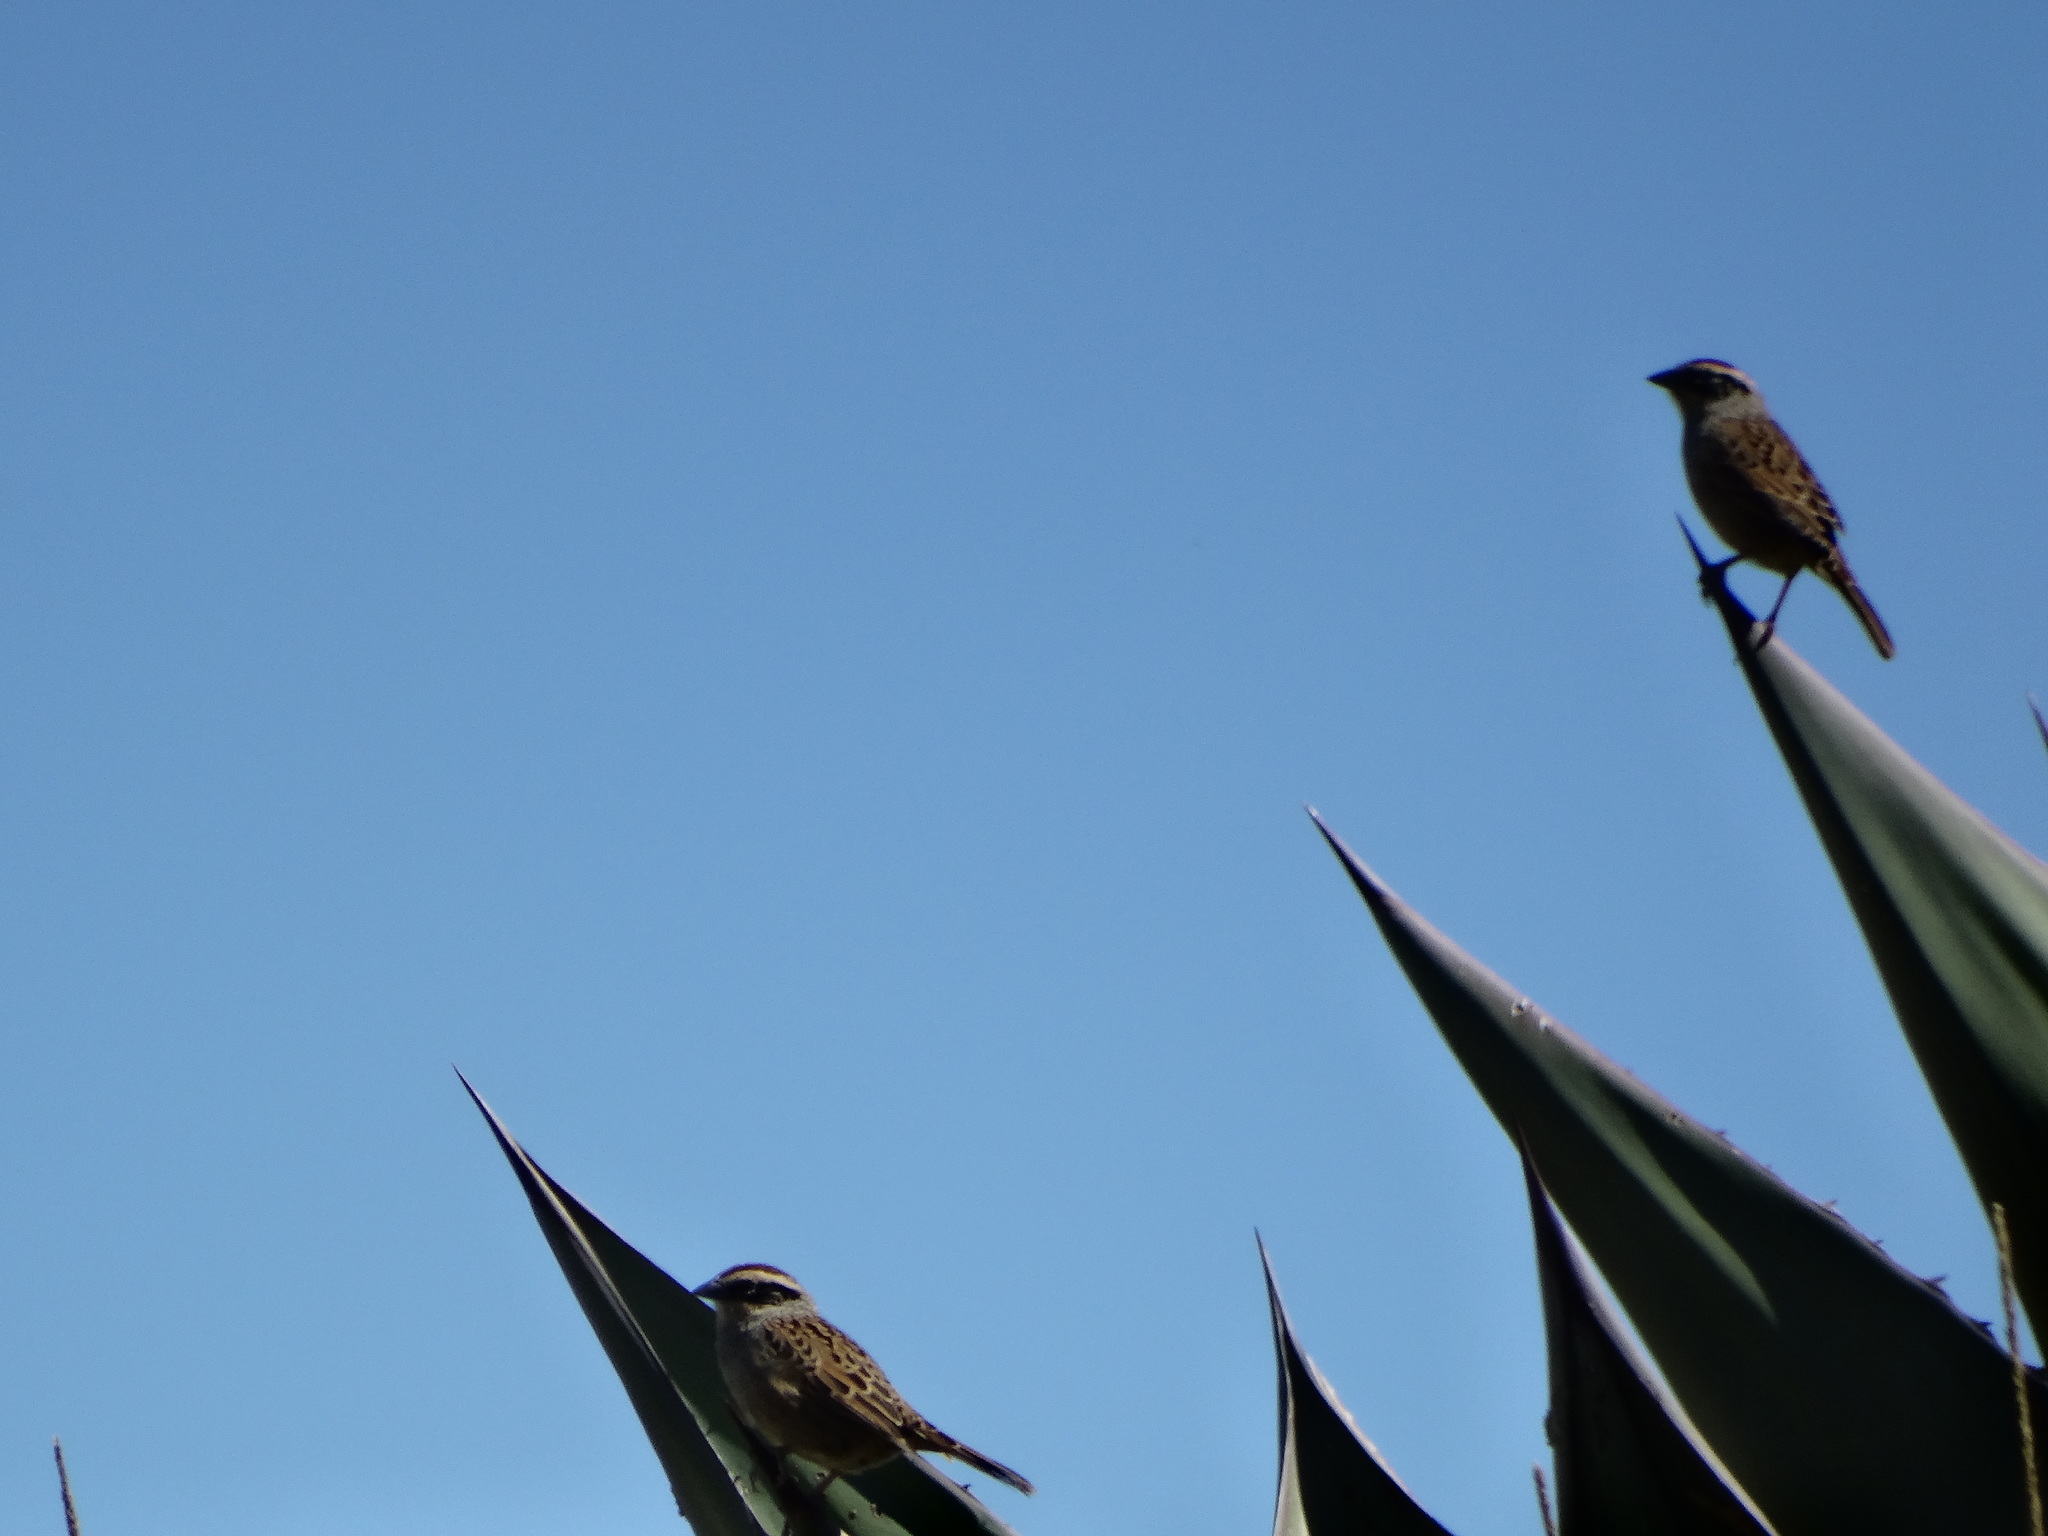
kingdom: Animalia
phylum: Chordata
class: Aves
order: Passeriformes
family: Passerellidae
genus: Oriturus
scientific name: Oriturus superciliosus
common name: Striped sparrow
